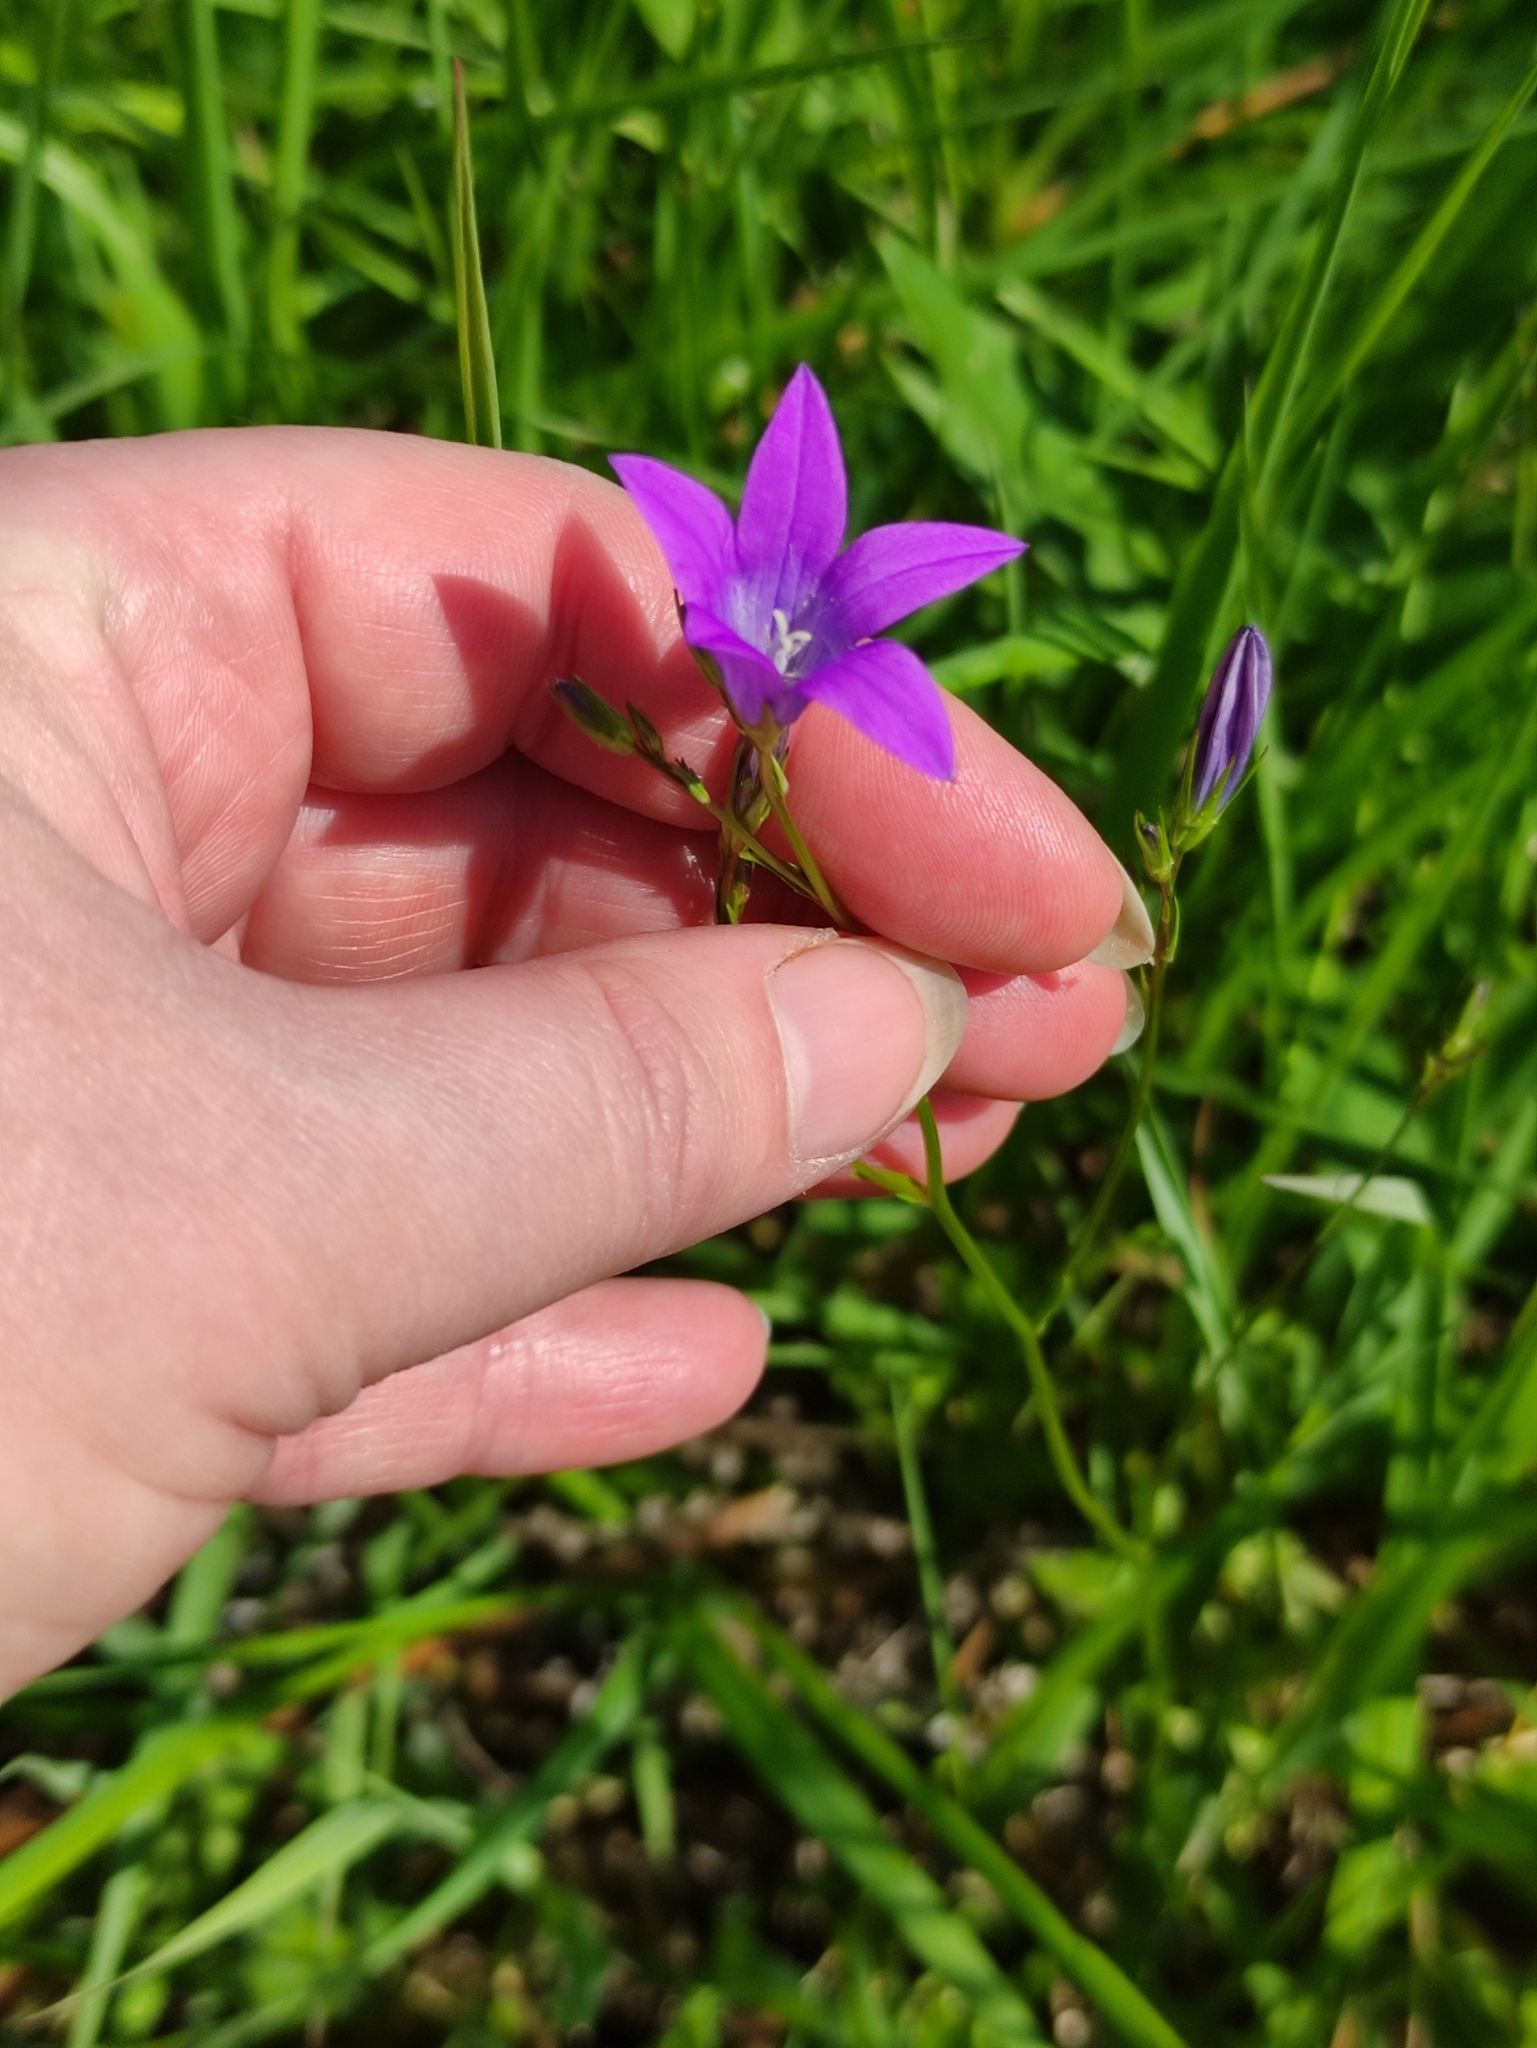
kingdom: Plantae
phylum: Tracheophyta
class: Magnoliopsida
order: Asterales
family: Campanulaceae
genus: Campanula
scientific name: Campanula patula
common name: Spreading bellflower
